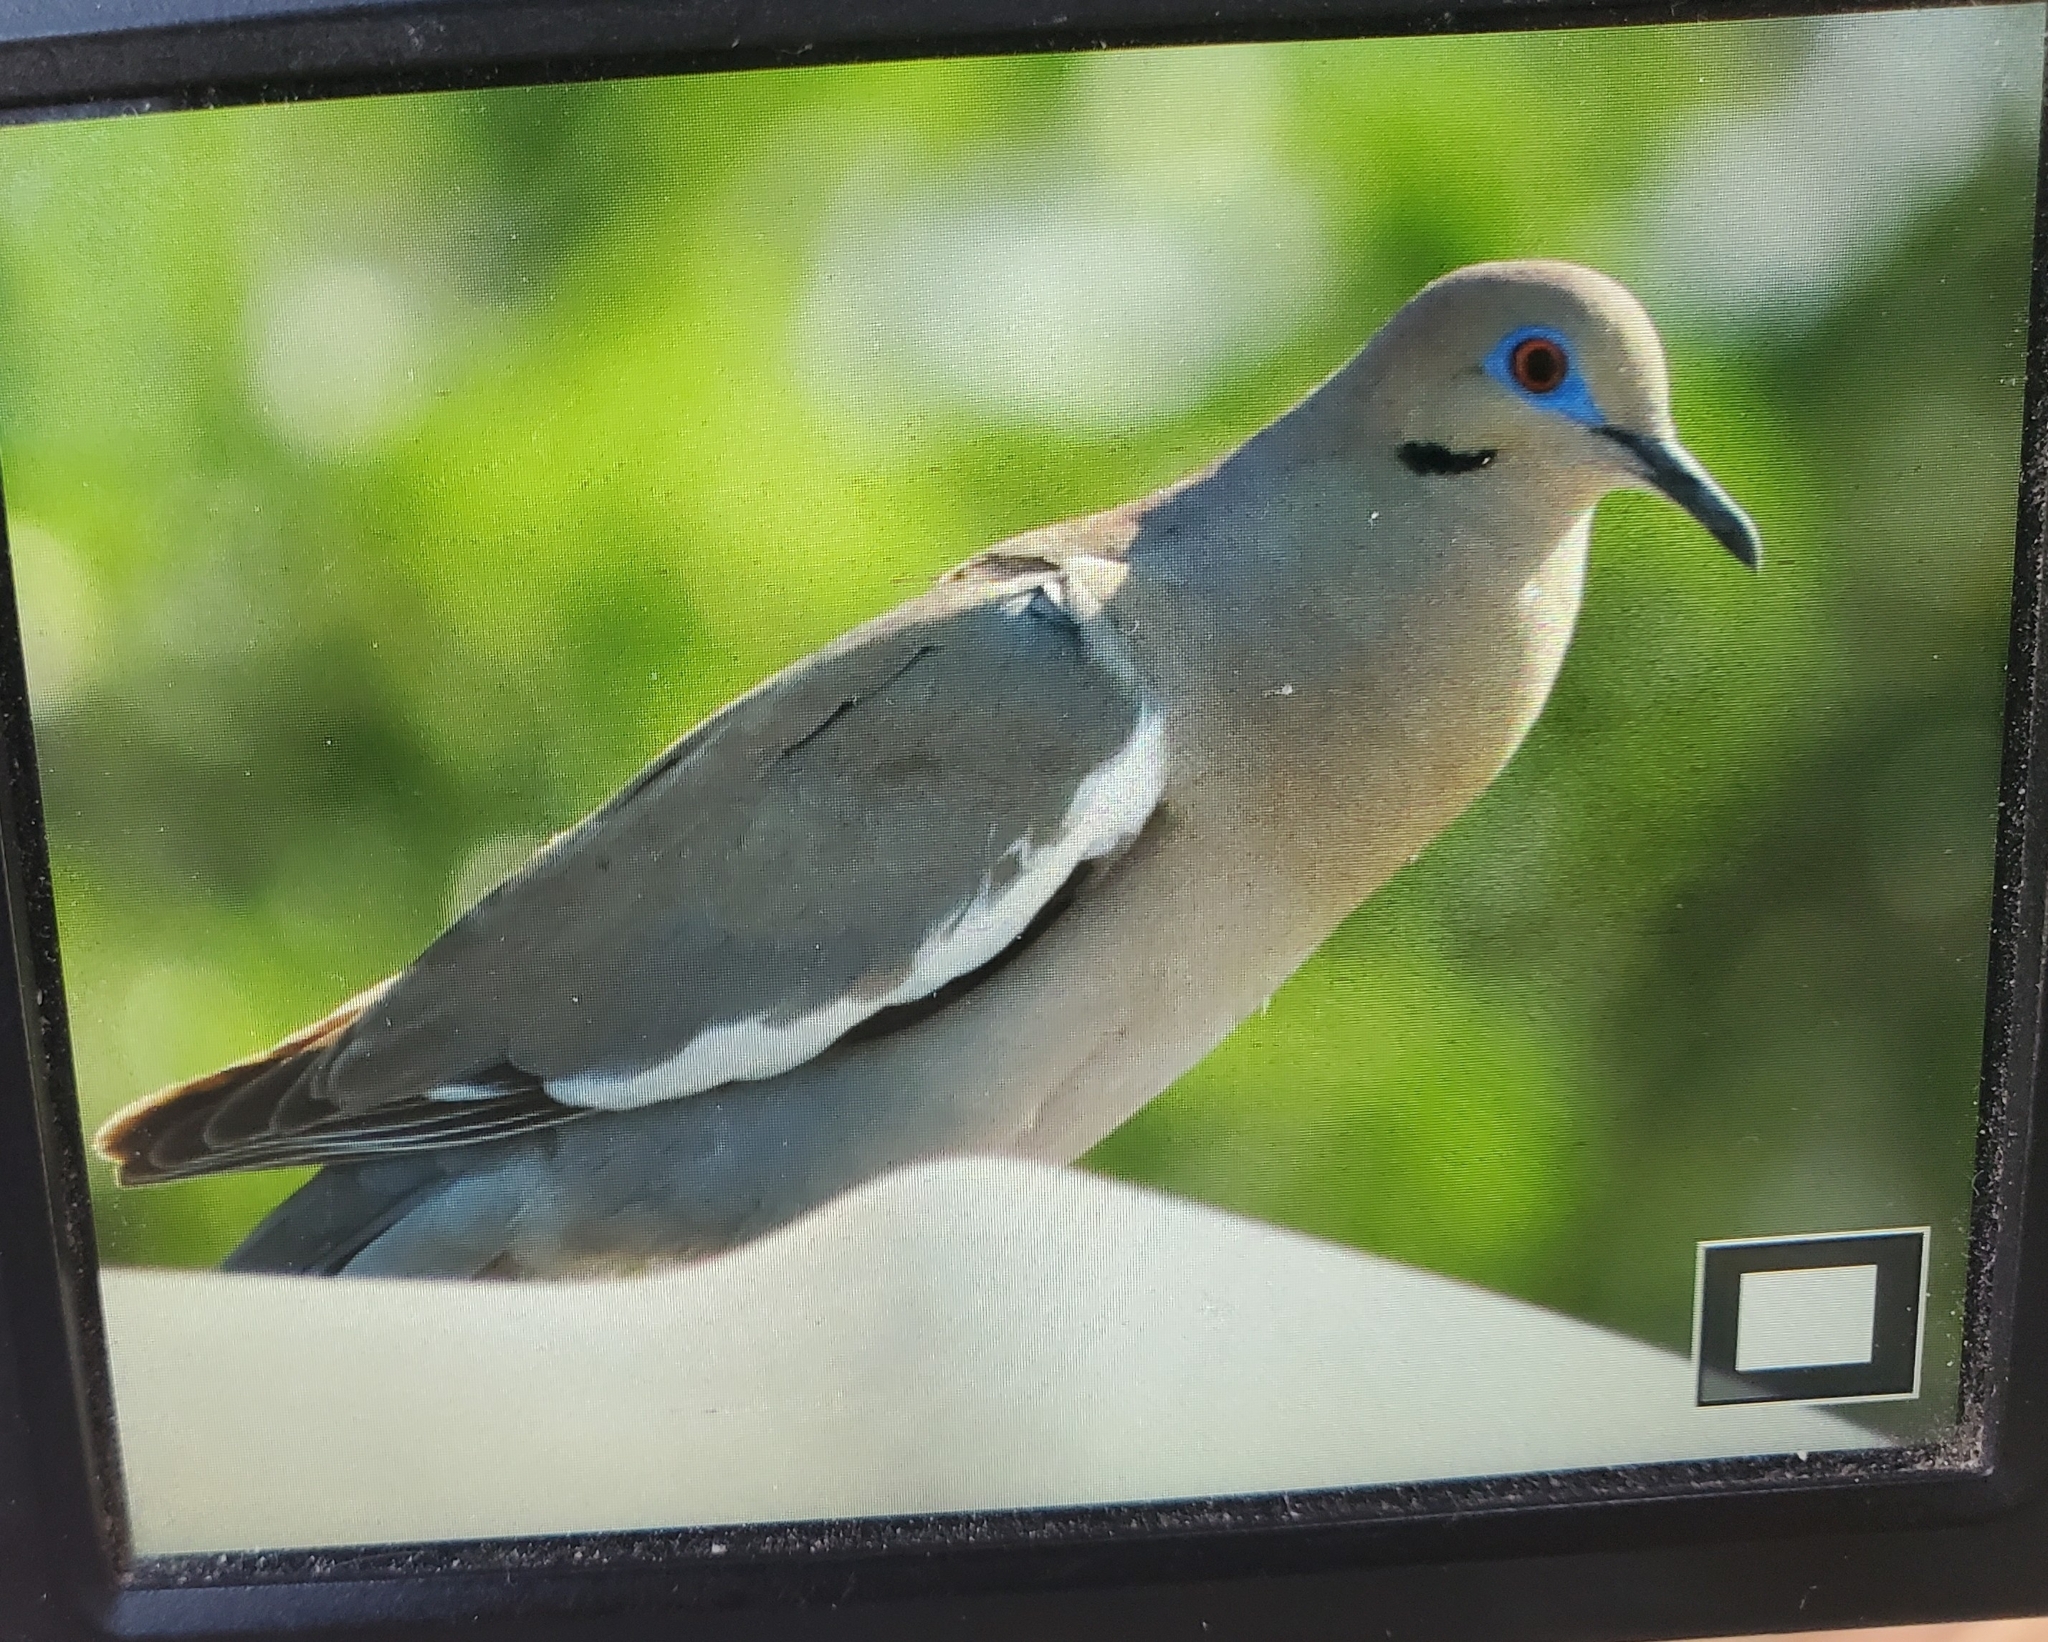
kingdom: Animalia
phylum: Chordata
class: Aves
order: Columbiformes
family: Columbidae
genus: Zenaida
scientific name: Zenaida asiatica
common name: White-winged dove
